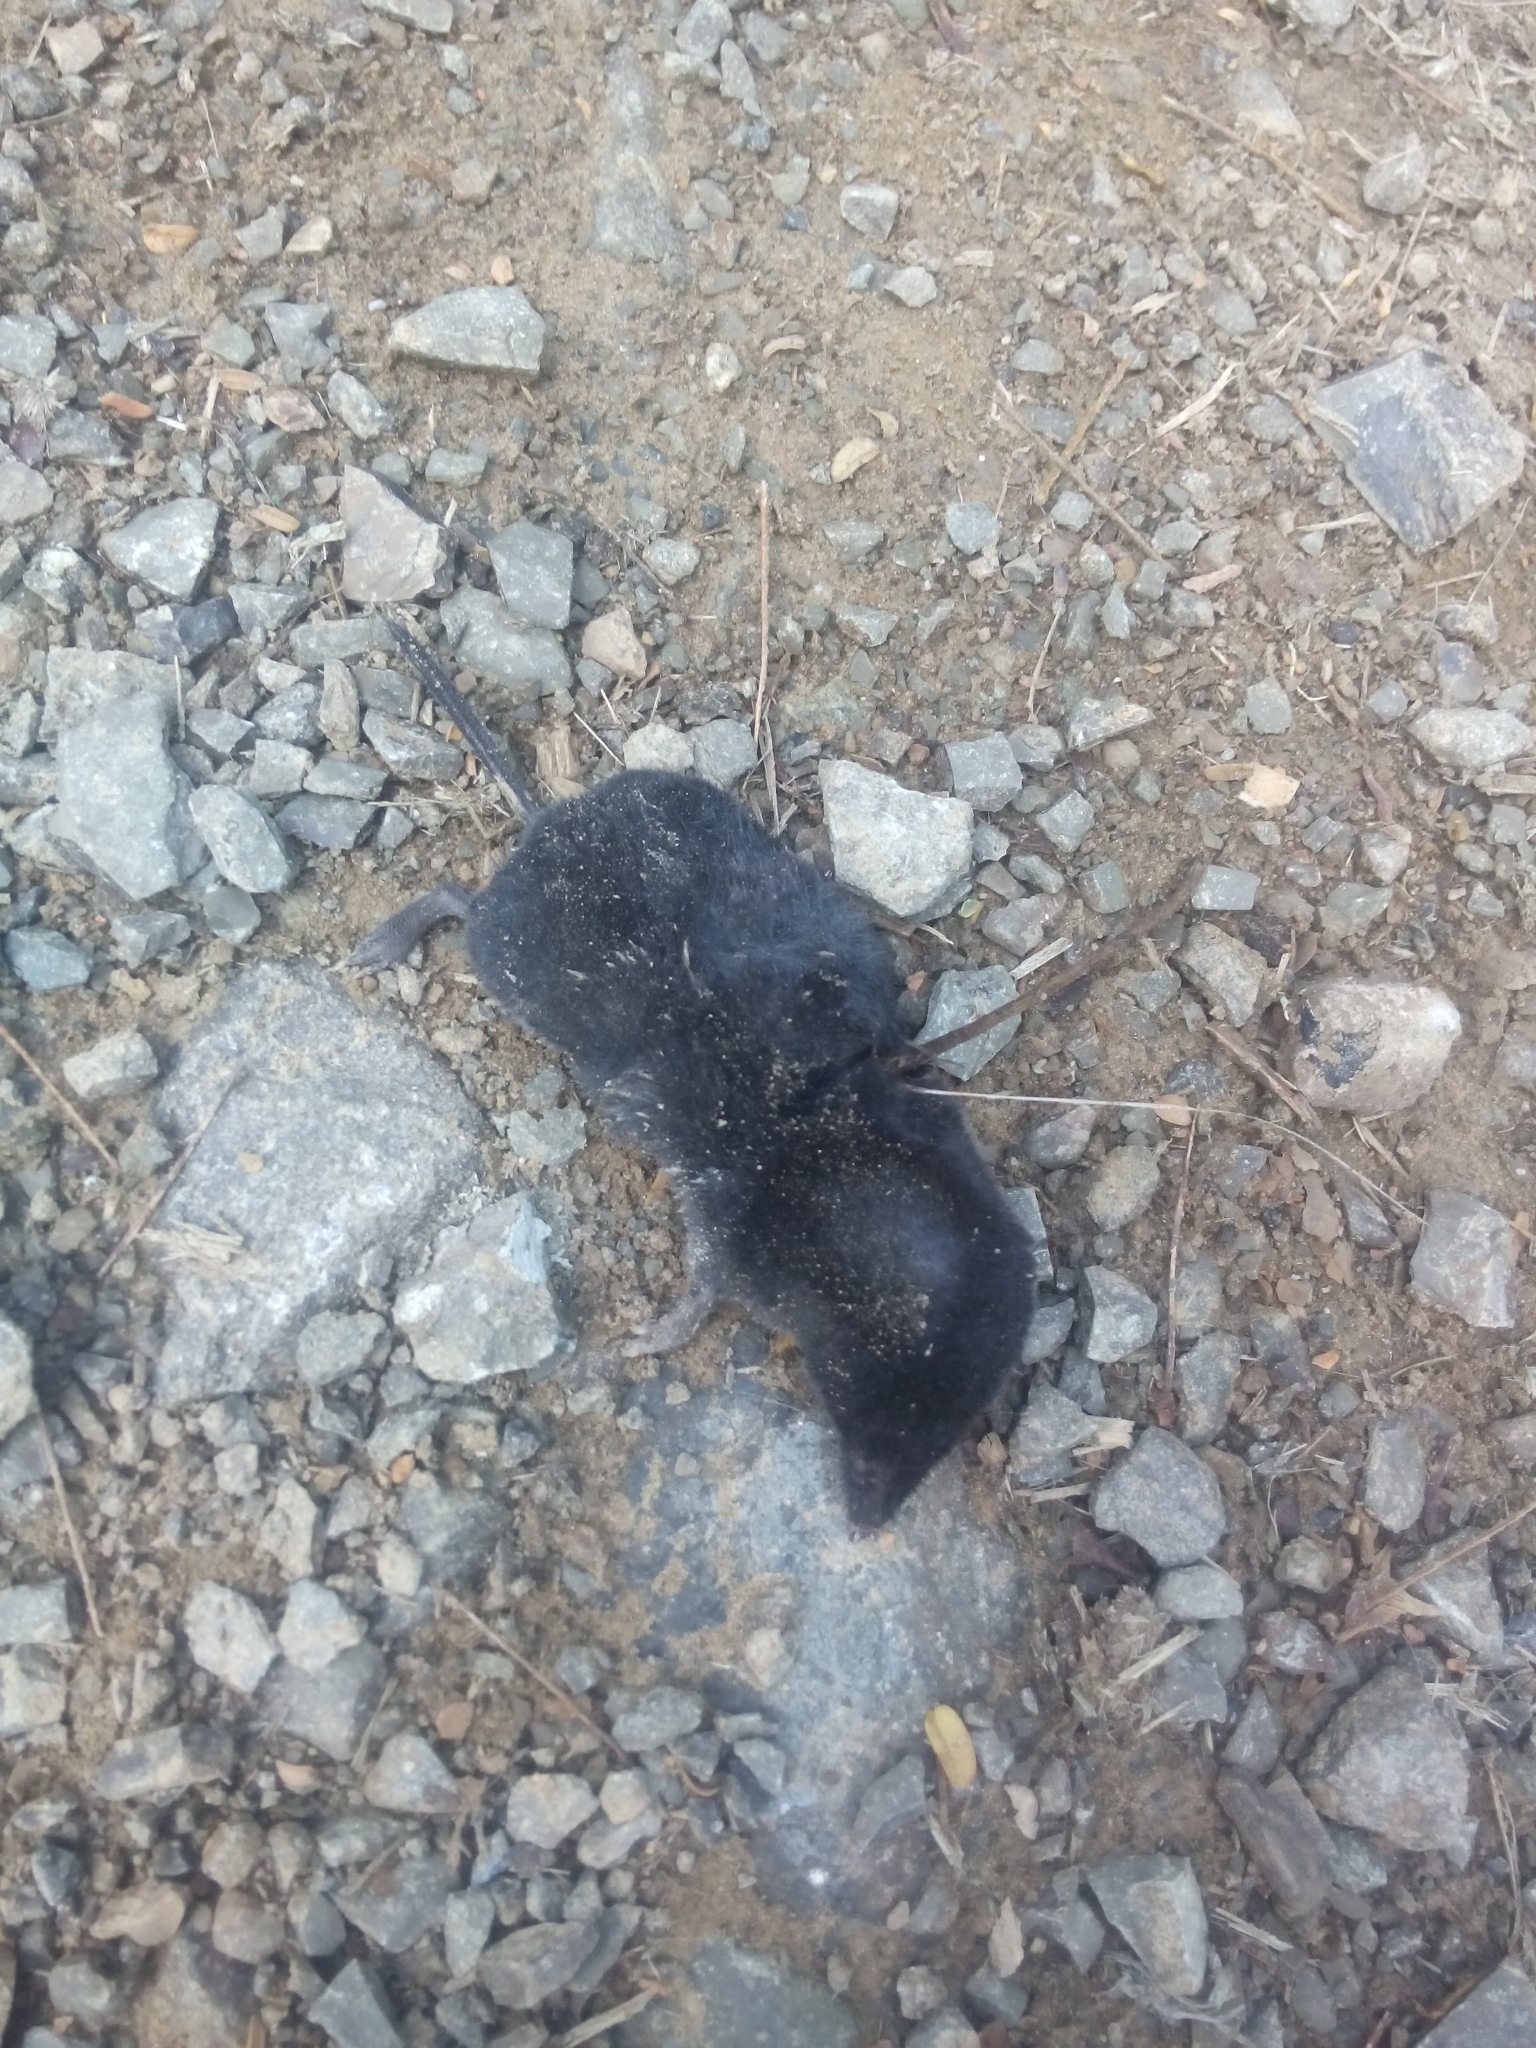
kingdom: Animalia
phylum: Chordata
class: Mammalia
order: Soricomorpha
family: Soricidae
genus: Cryptotis
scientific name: Cryptotis medellinia
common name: Medellín small-eared shrew
